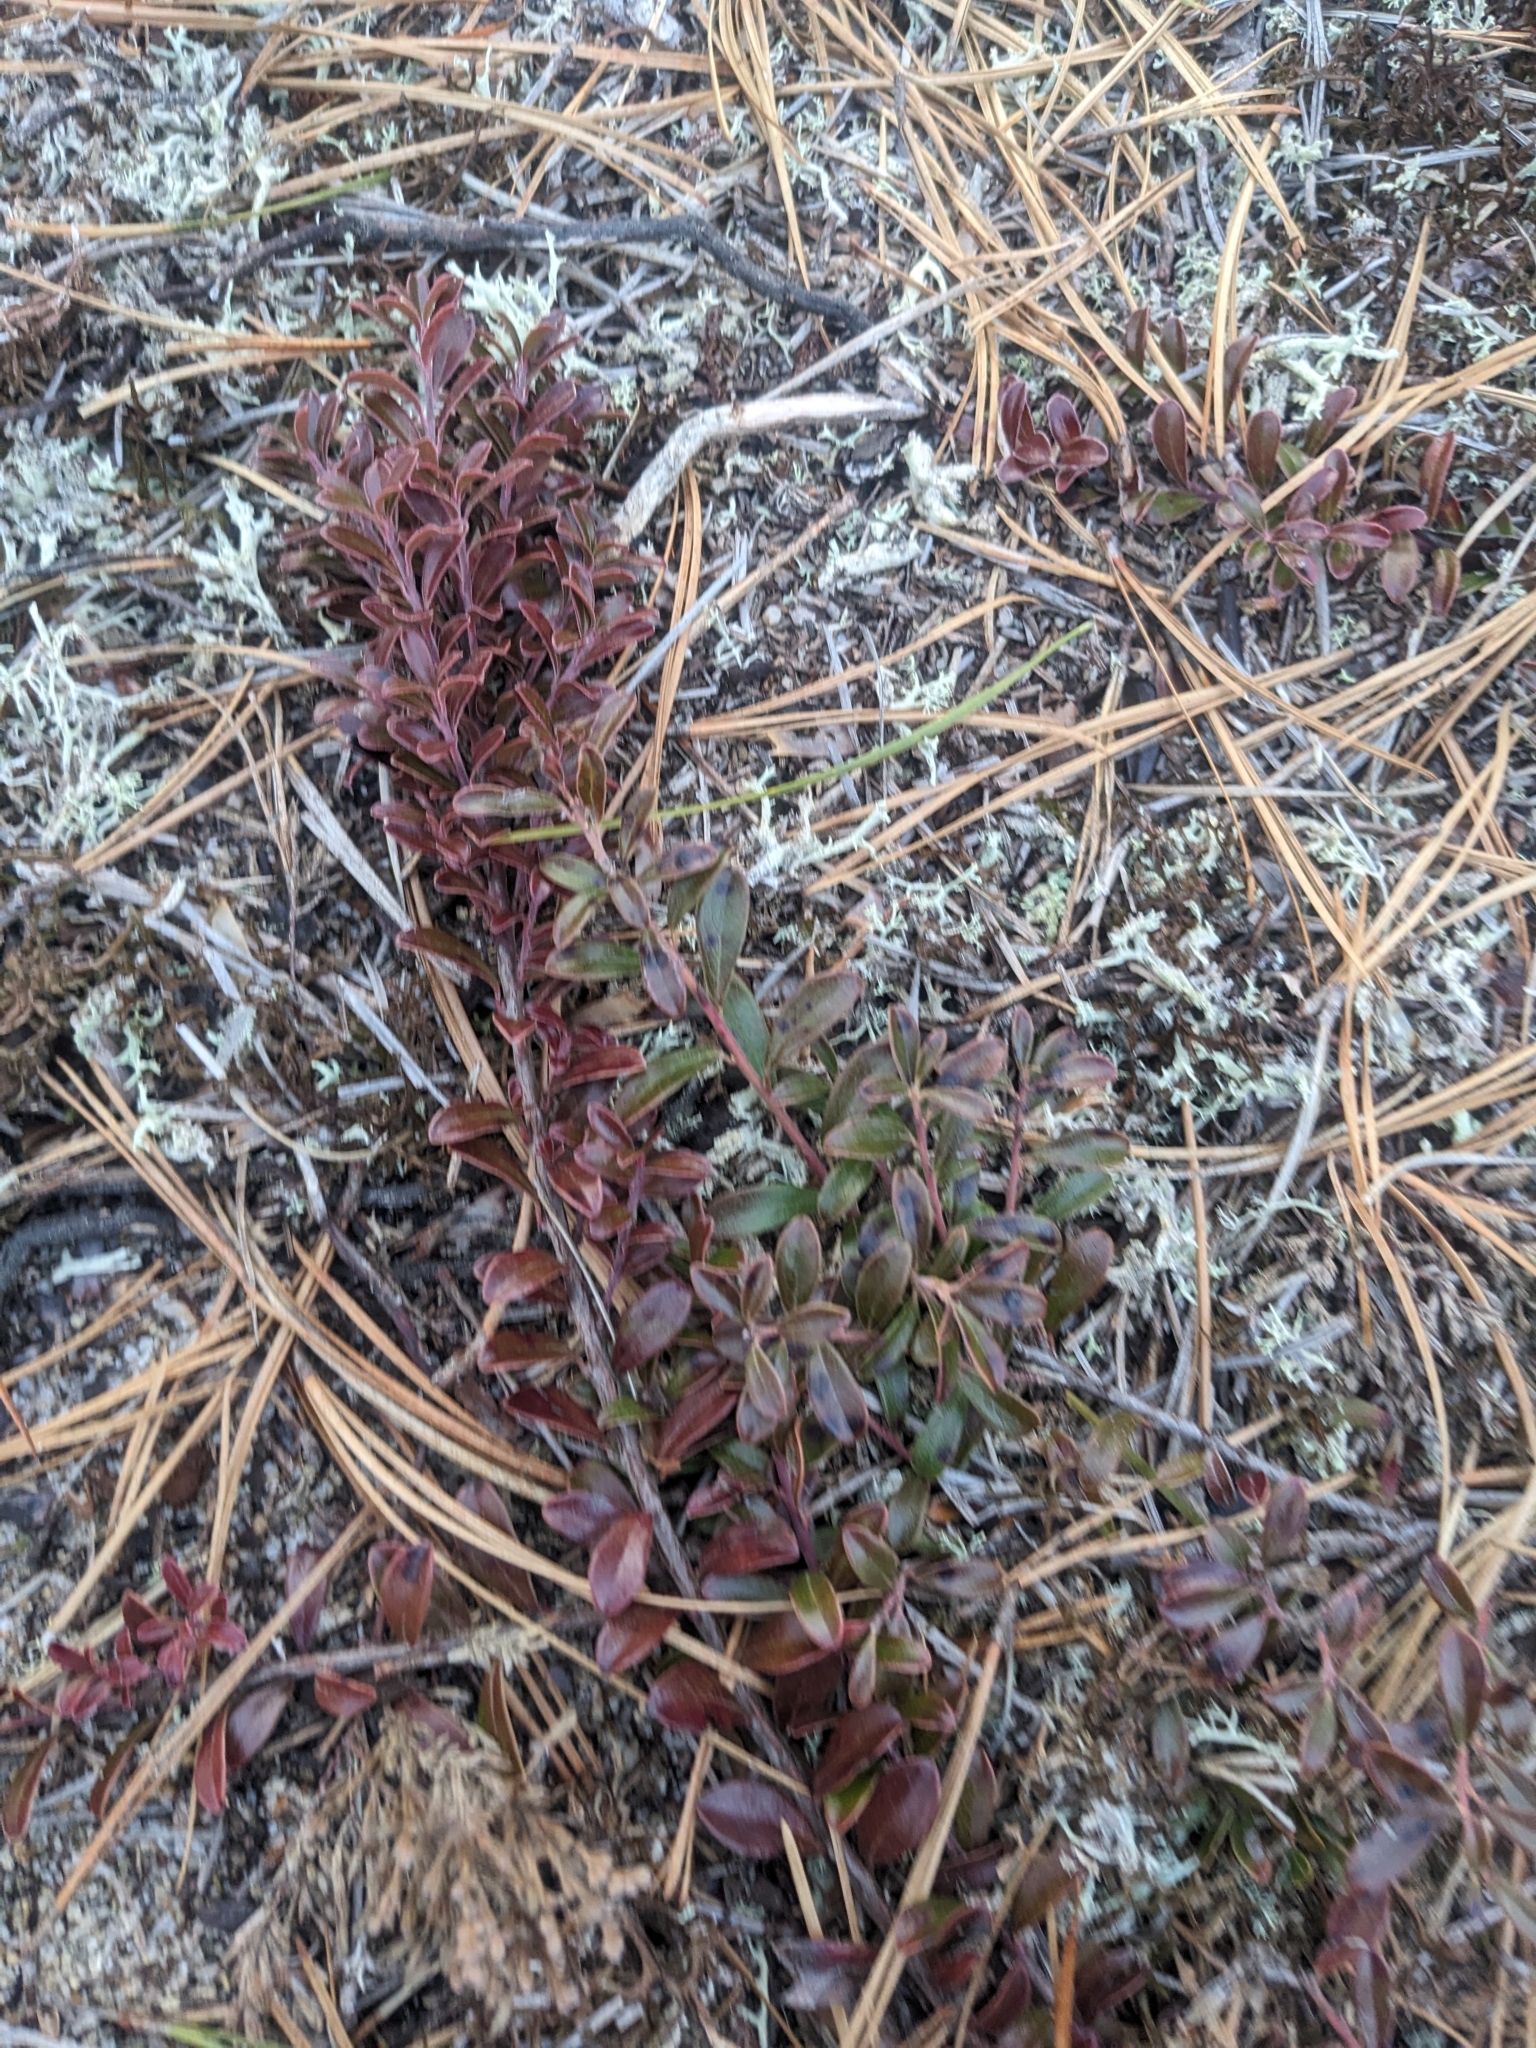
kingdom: Plantae
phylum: Tracheophyta
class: Magnoliopsida
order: Ericales
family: Ericaceae
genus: Arctostaphylos
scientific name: Arctostaphylos uva-ursi
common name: Bearberry
